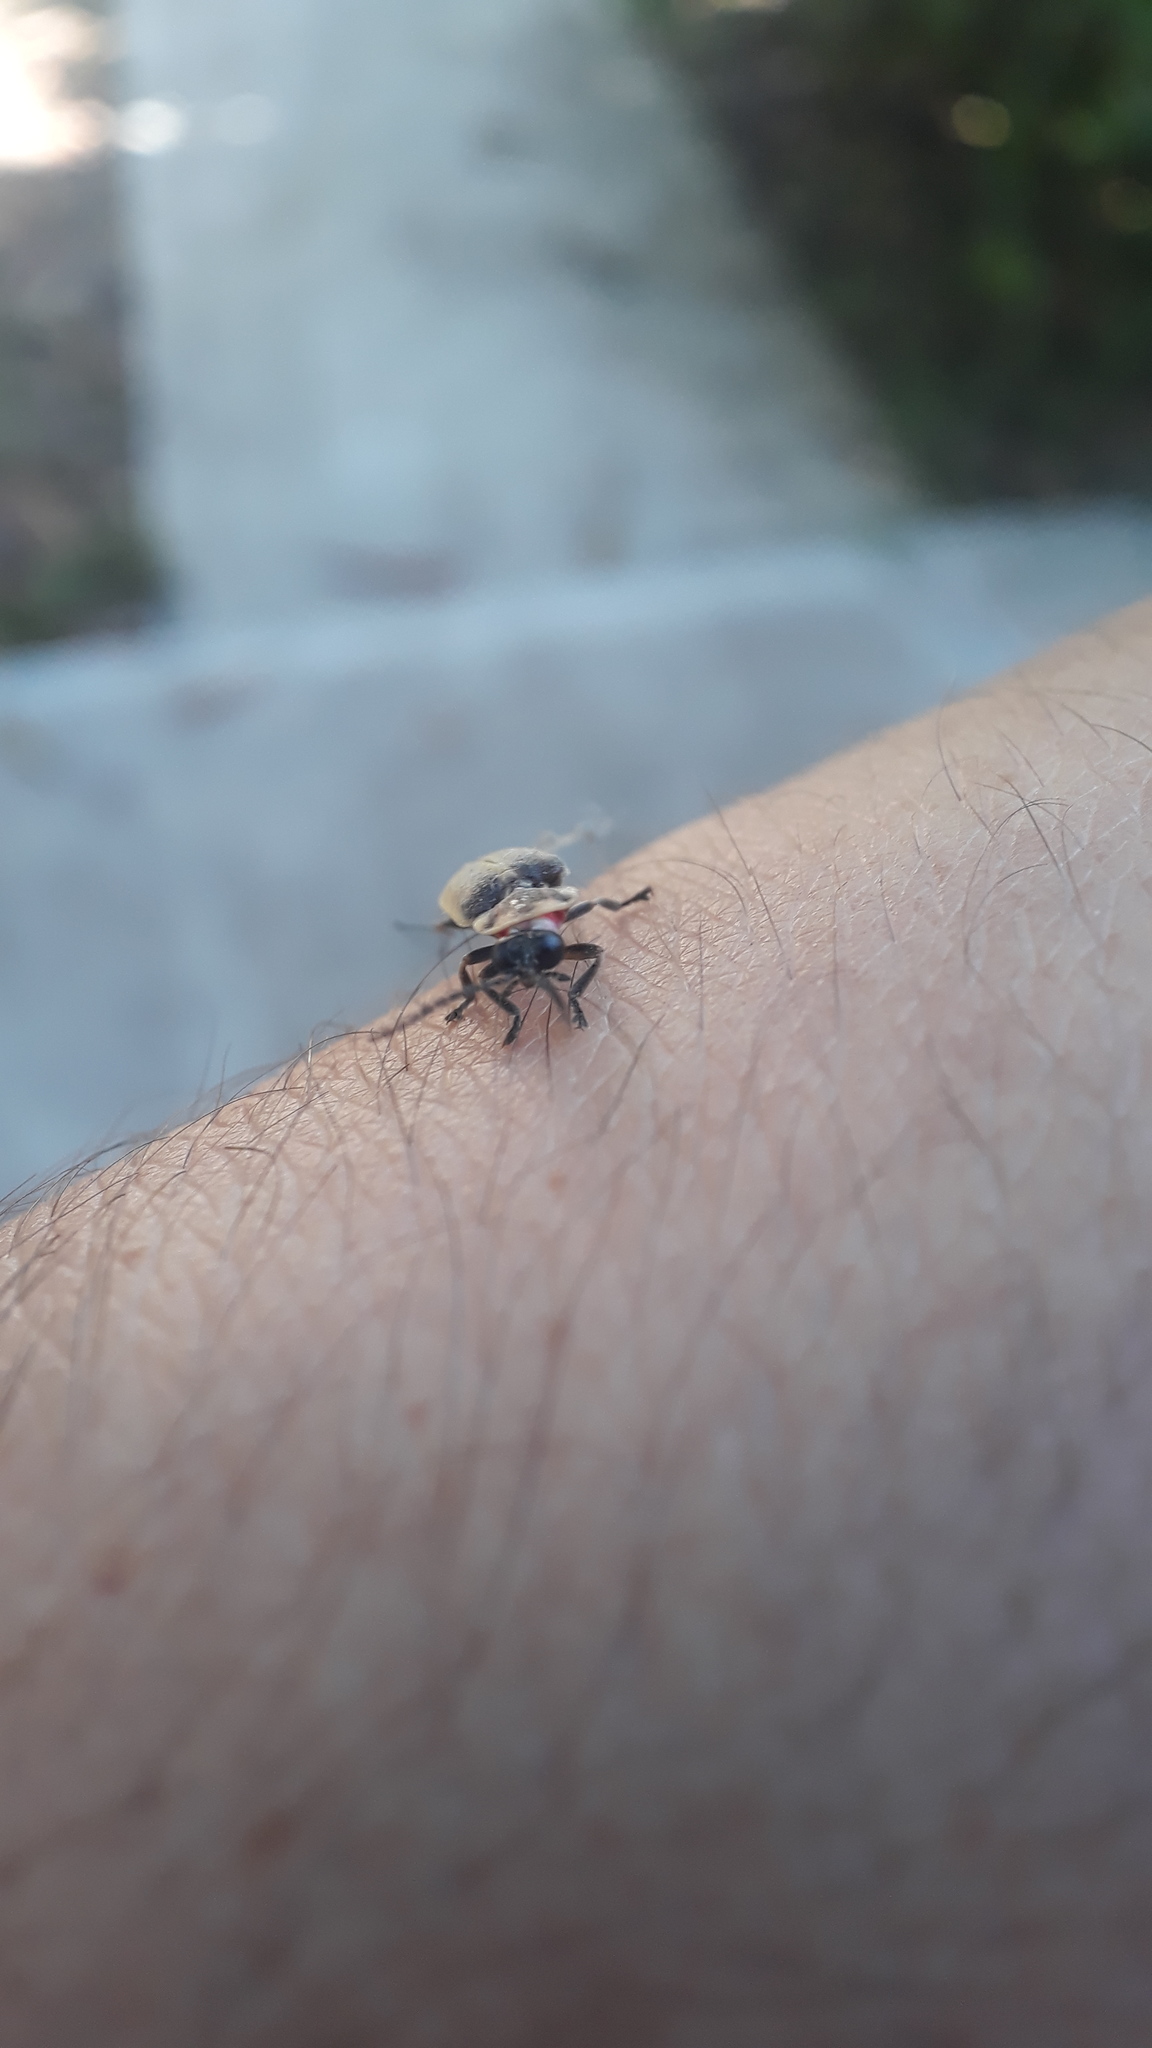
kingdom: Animalia
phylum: Arthropoda
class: Insecta
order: Coleoptera
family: Lampyridae
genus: Photinus
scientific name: Photinus signaticollis
